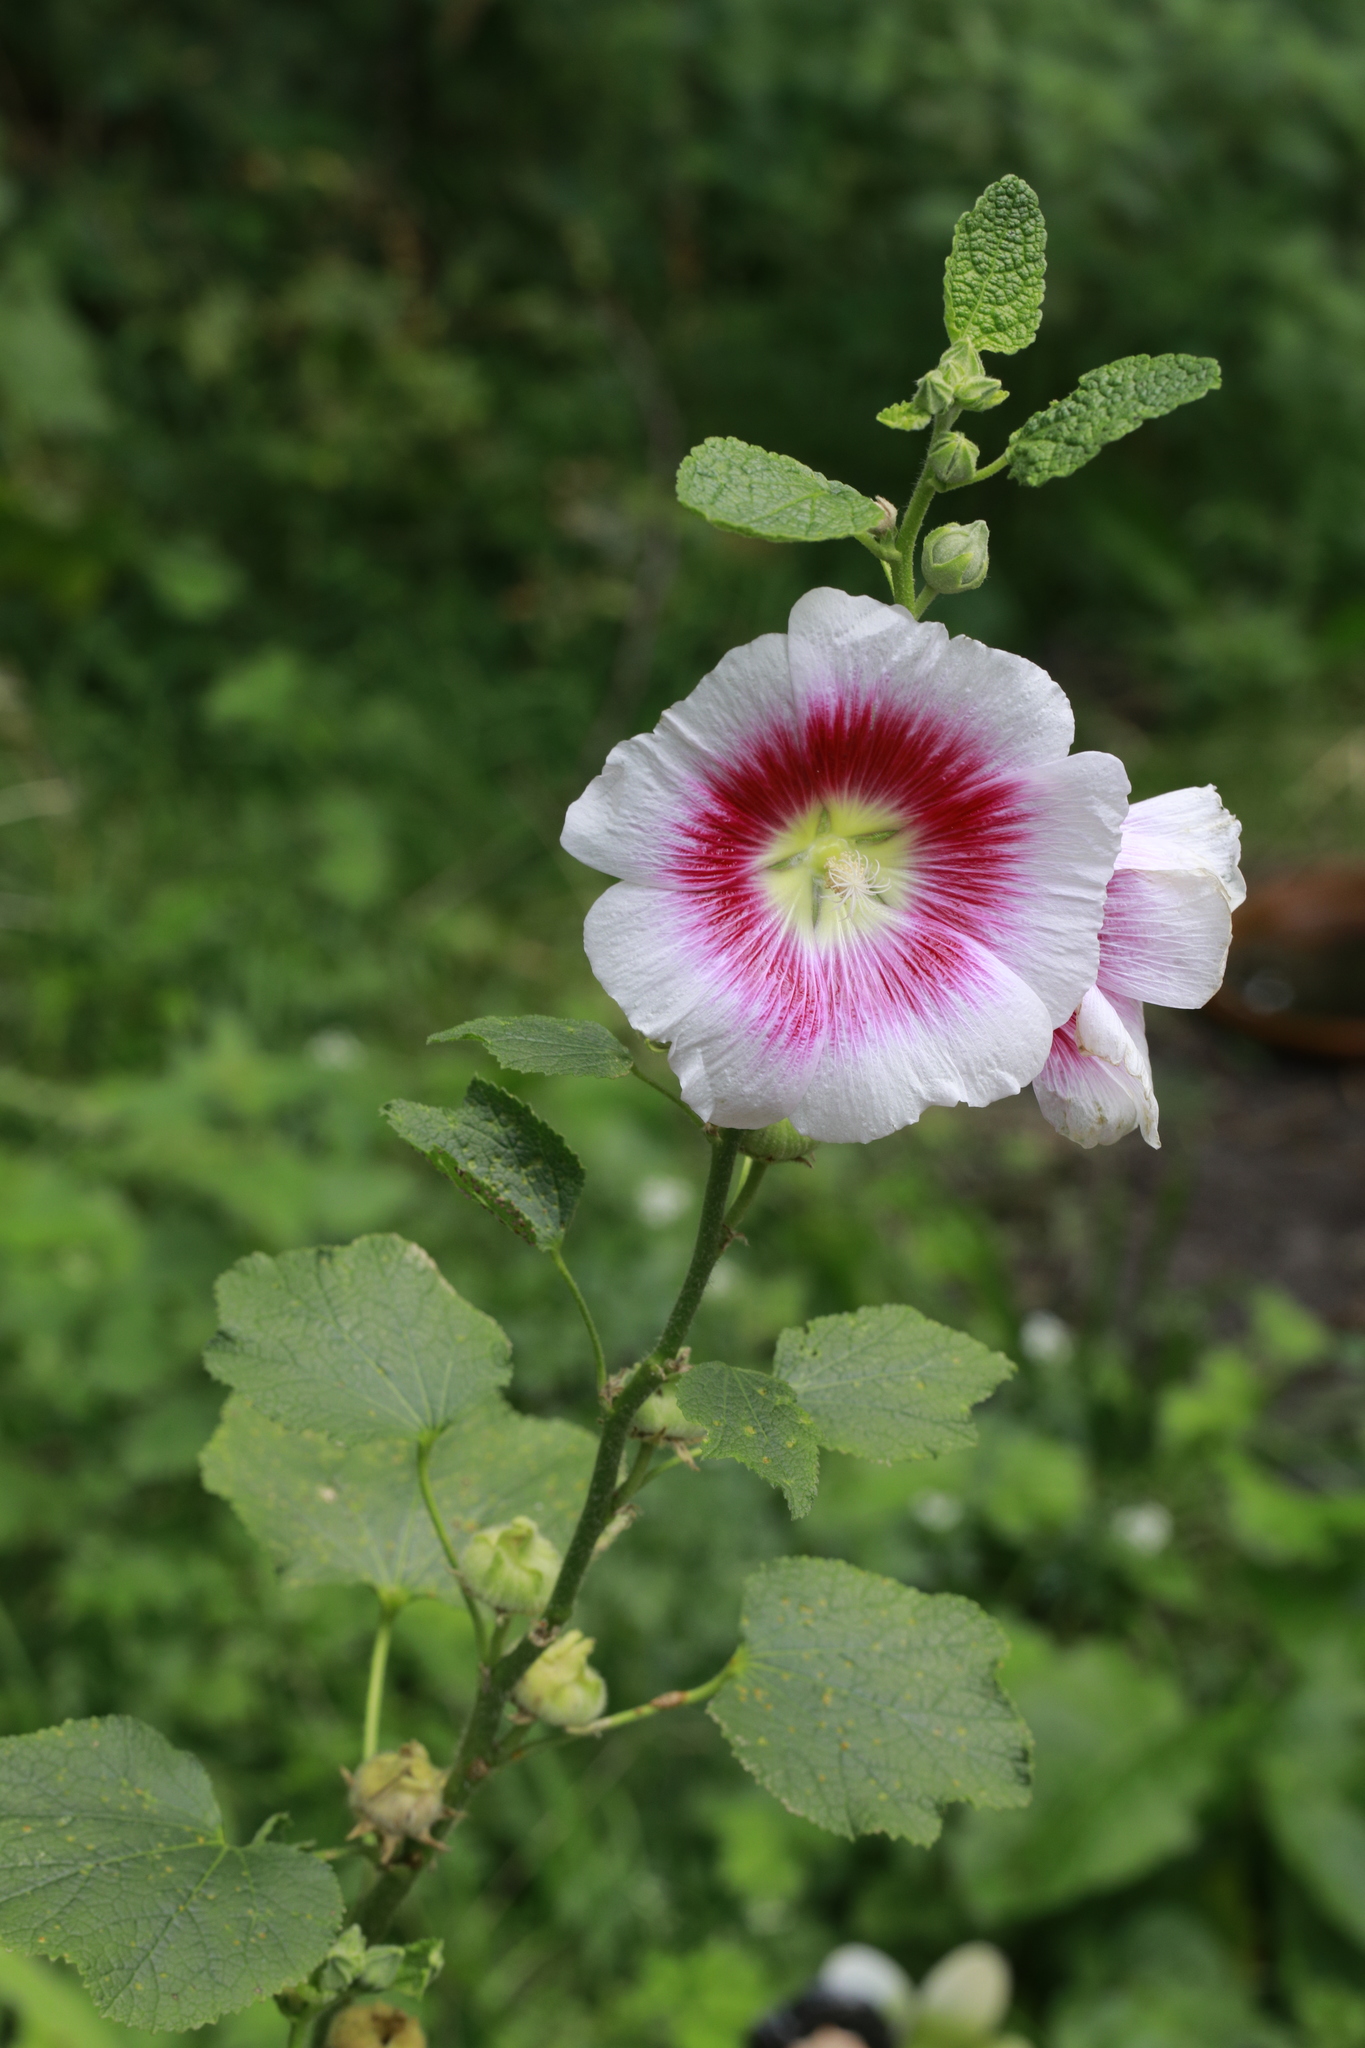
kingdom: Plantae
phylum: Tracheophyta
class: Magnoliopsida
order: Malvales
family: Malvaceae
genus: Alcea
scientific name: Alcea rosea
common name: Hollyhock
